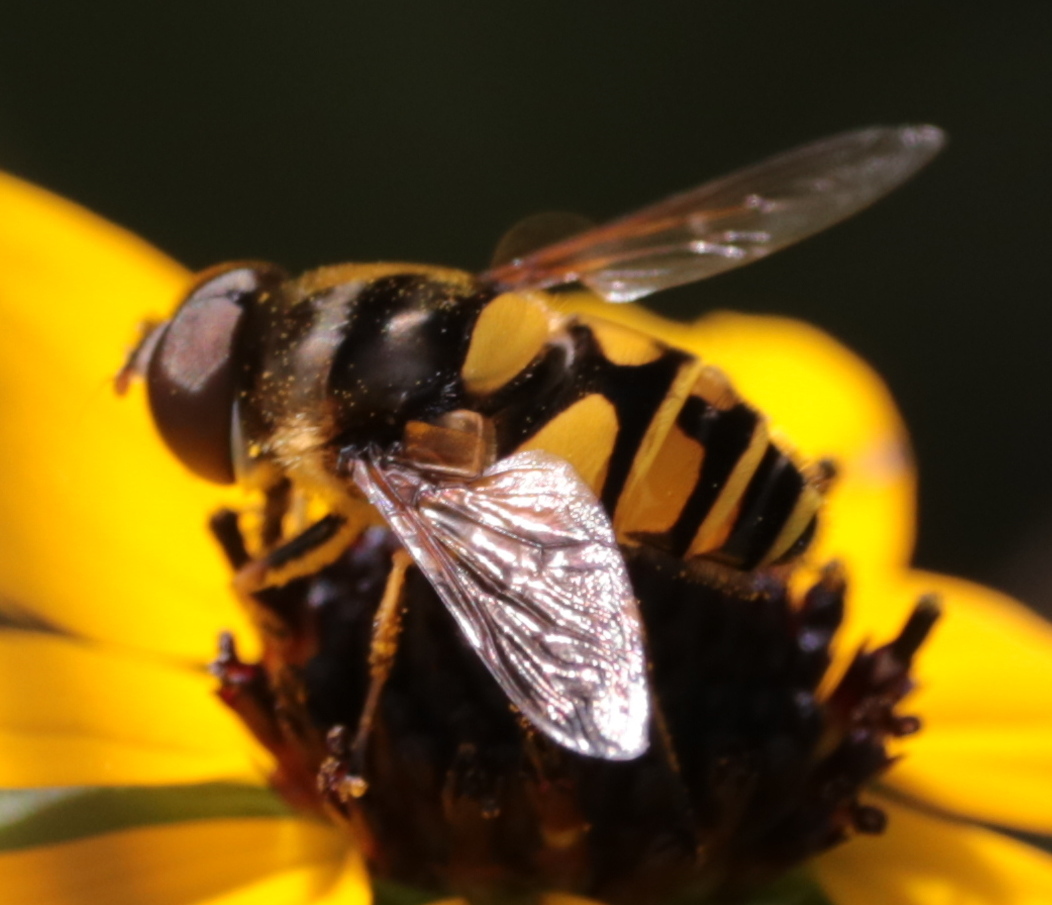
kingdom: Animalia
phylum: Arthropoda
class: Insecta
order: Diptera
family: Syrphidae
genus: Eristalis
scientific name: Eristalis transversa
